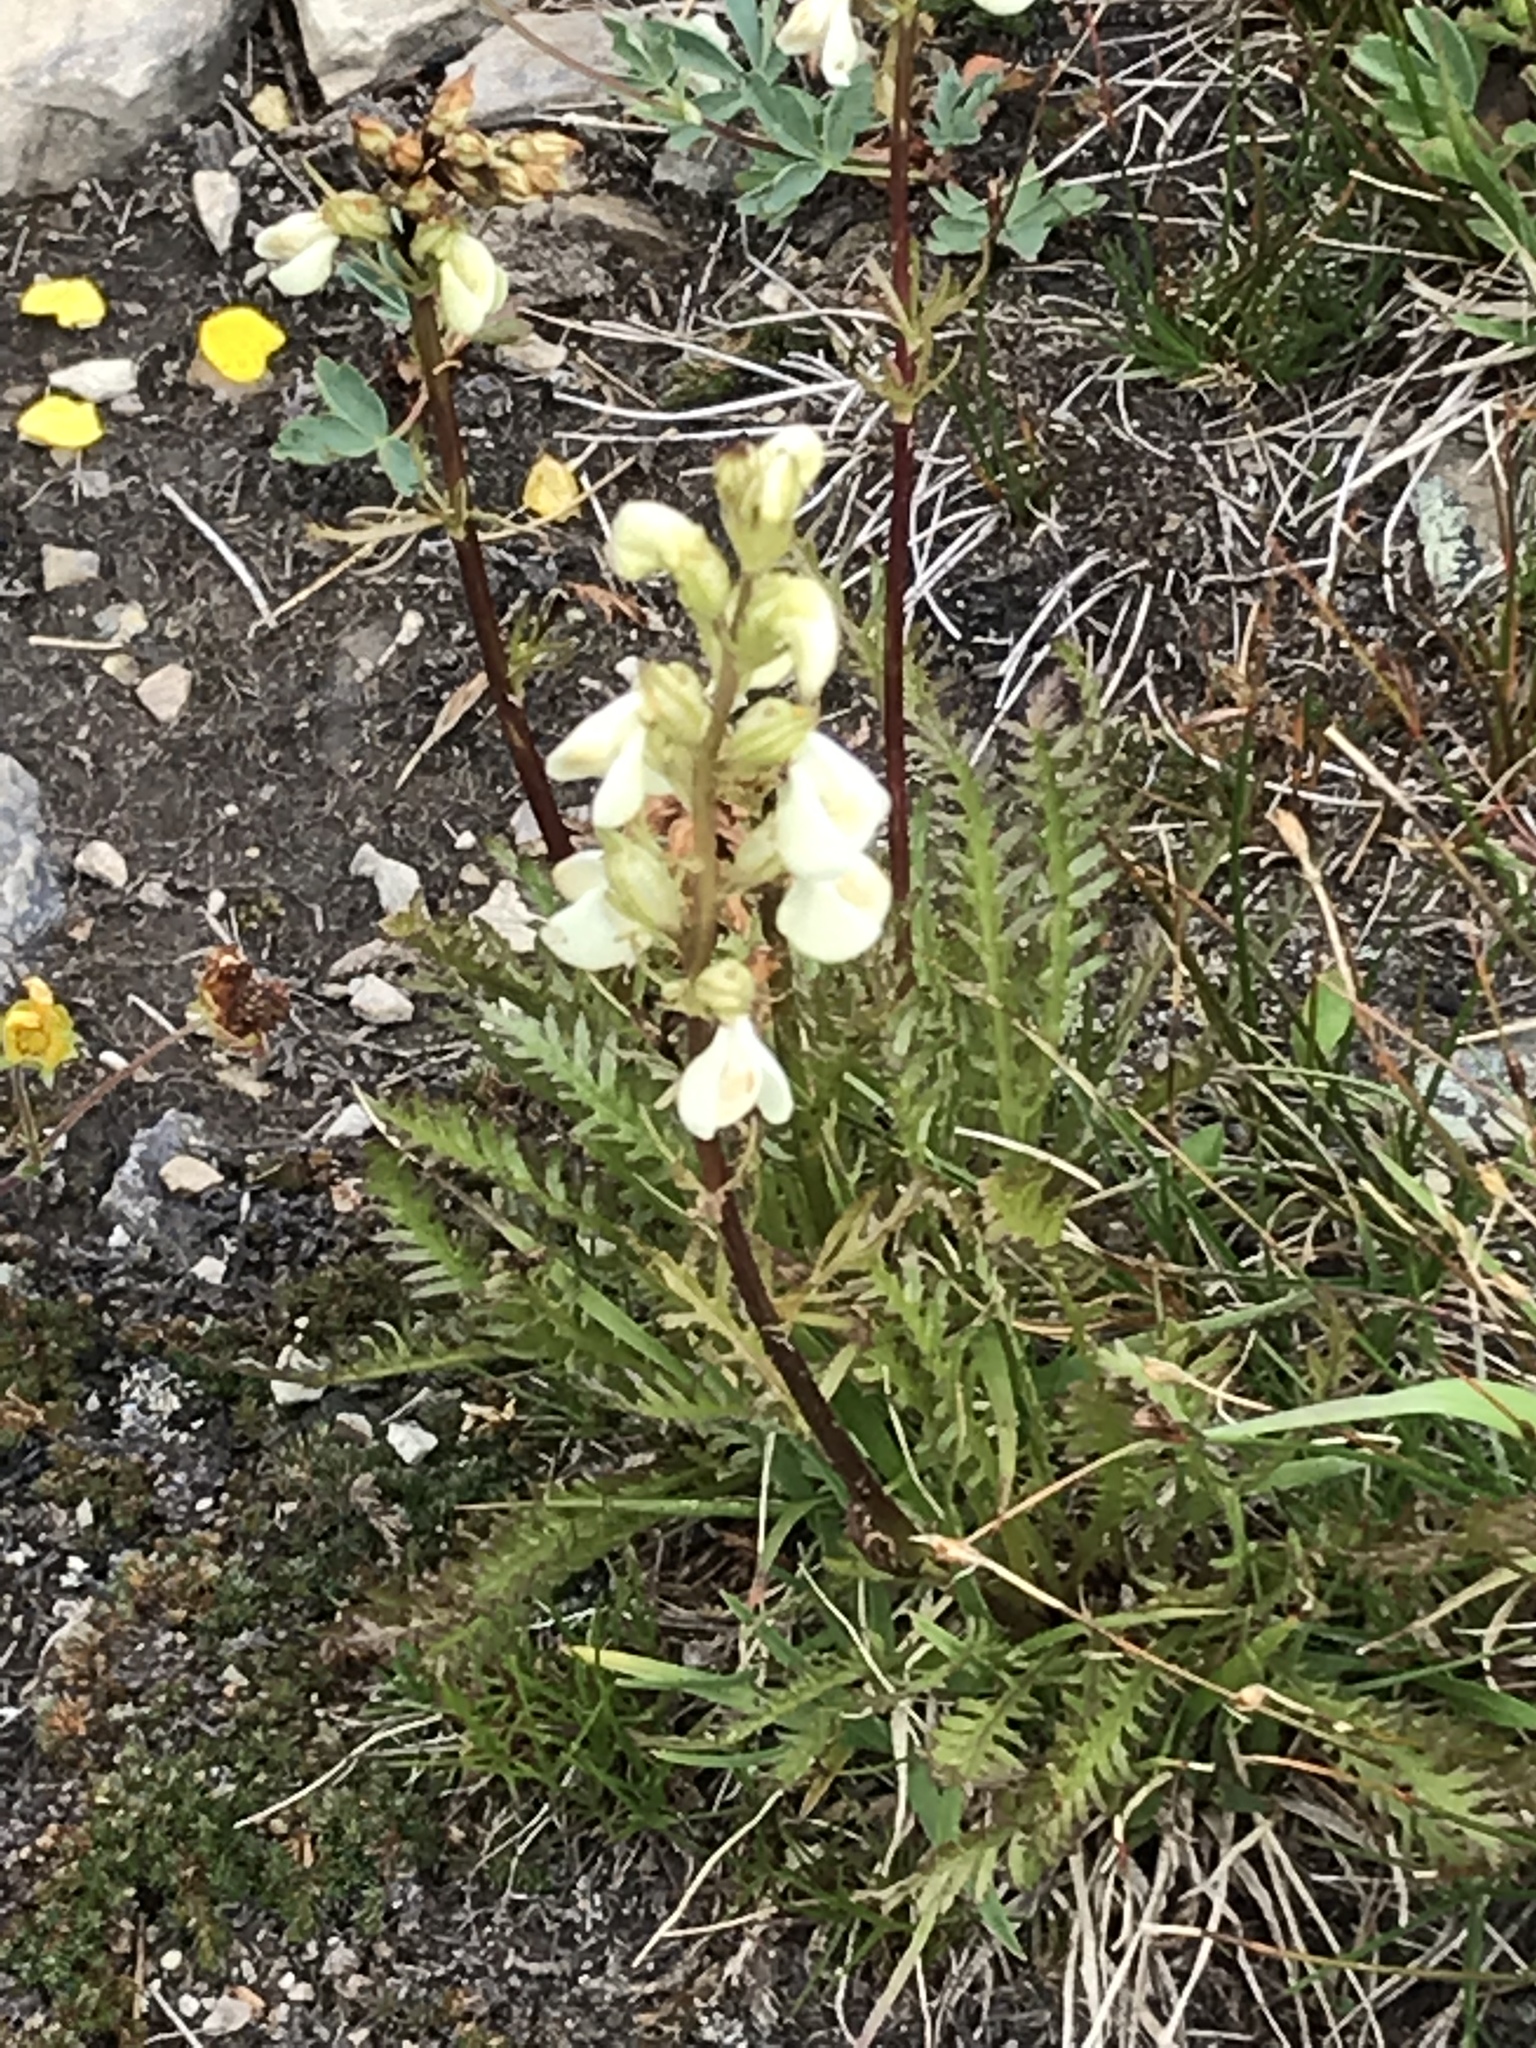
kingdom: Plantae
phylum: Tracheophyta
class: Magnoliopsida
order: Lamiales
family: Orobanchaceae
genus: Pedicularis
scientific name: Pedicularis contorta
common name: Coiled lousewort
